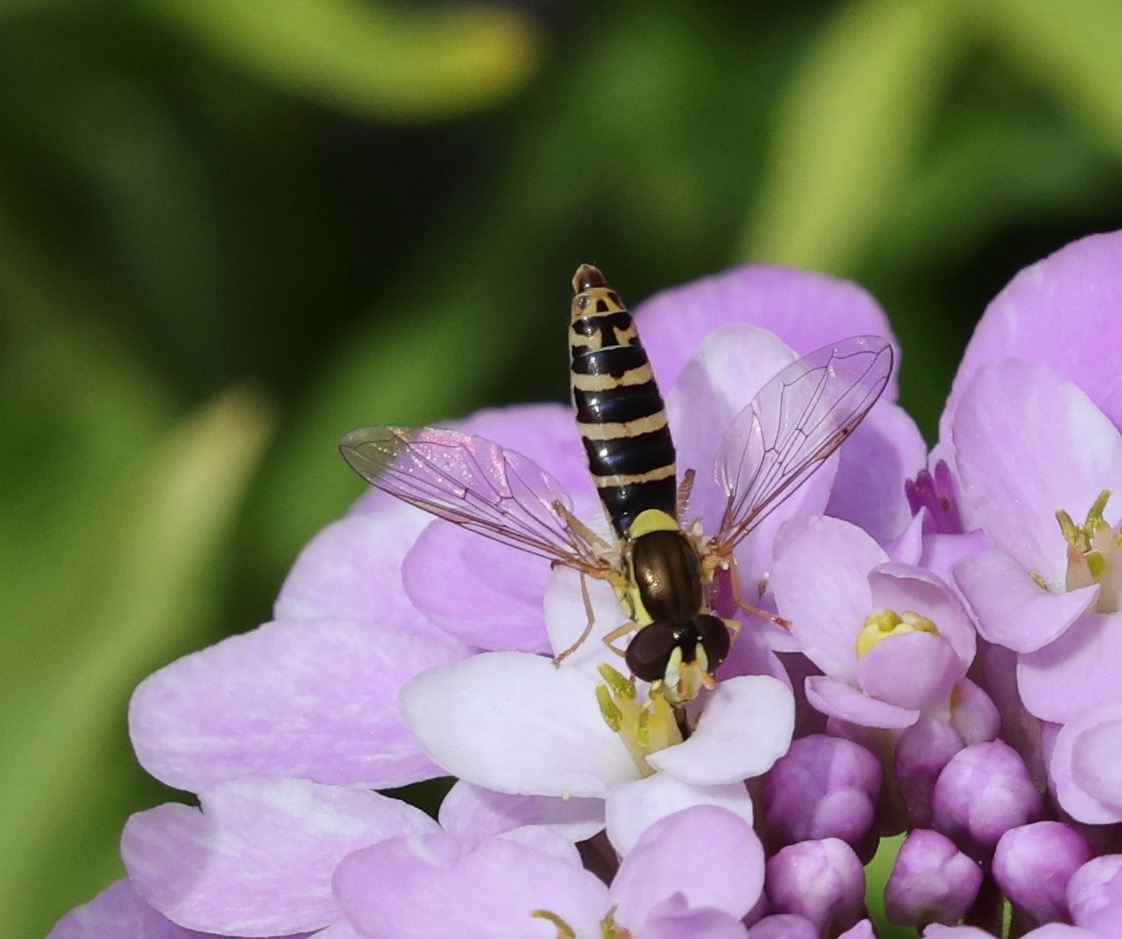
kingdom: Animalia
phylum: Arthropoda
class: Insecta
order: Diptera
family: Syrphidae
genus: Sphaerophoria
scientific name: Sphaerophoria
